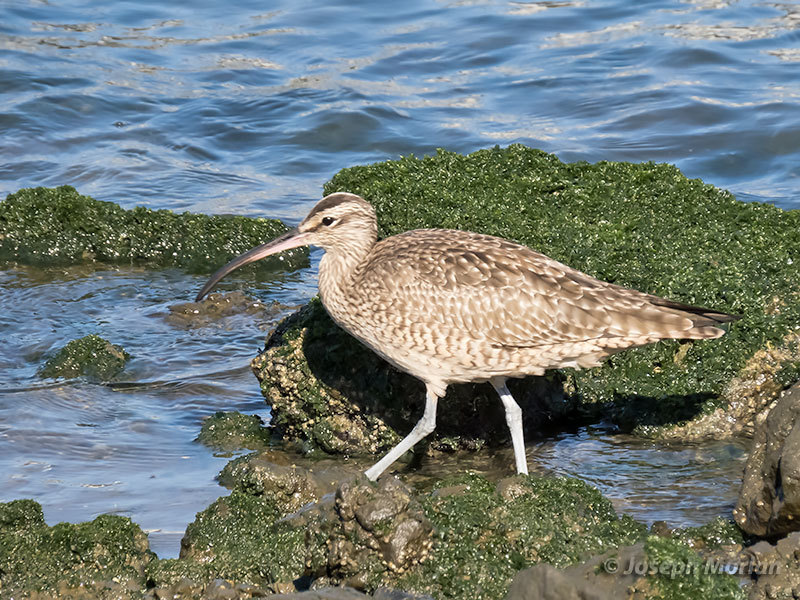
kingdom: Animalia
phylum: Chordata
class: Aves
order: Charadriiformes
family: Scolopacidae
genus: Numenius
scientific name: Numenius phaeopus
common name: Whimbrel
